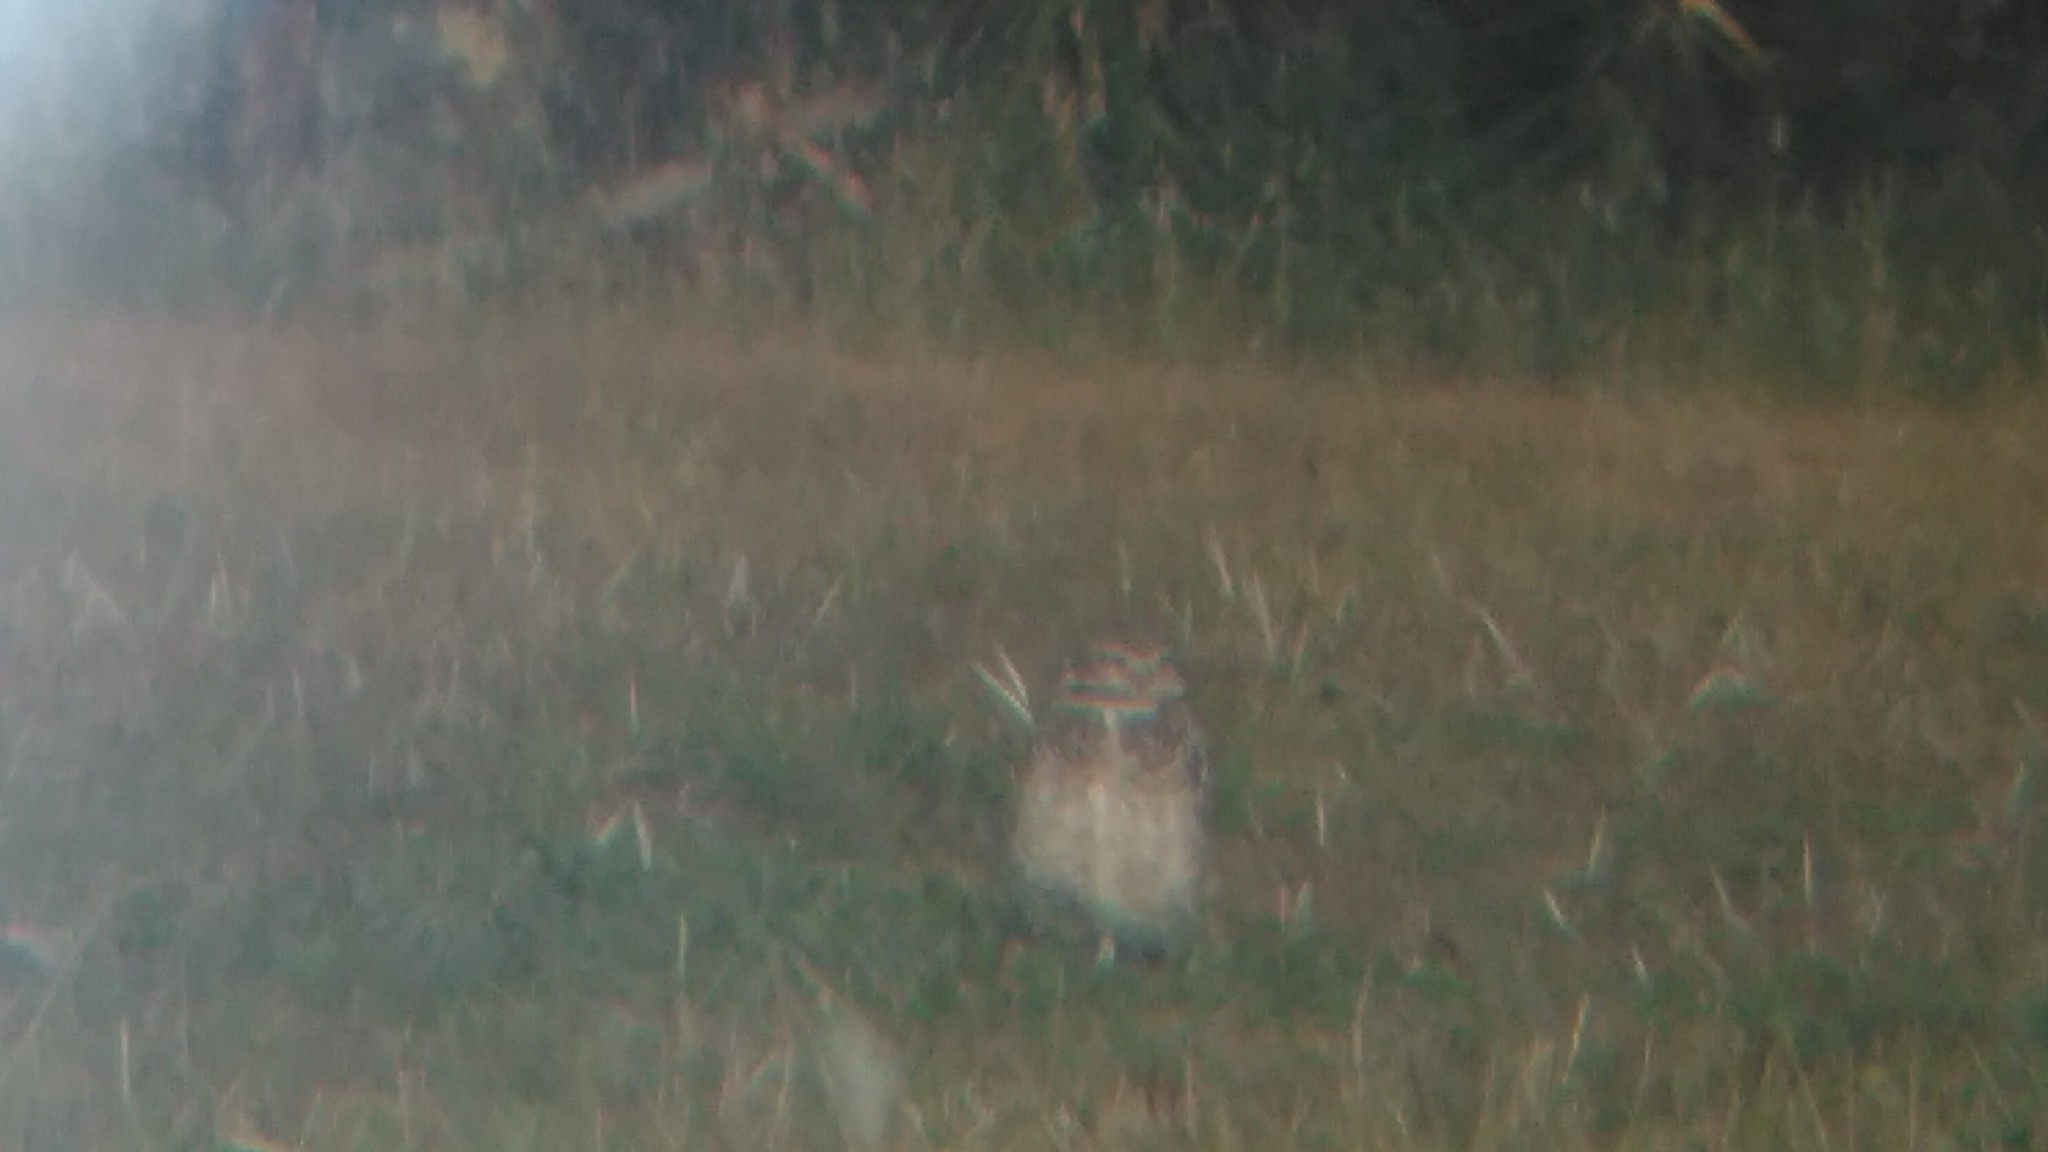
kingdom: Animalia
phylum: Chordata
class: Aves
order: Strigiformes
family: Strigidae
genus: Athene
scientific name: Athene cunicularia
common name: Burrowing owl
